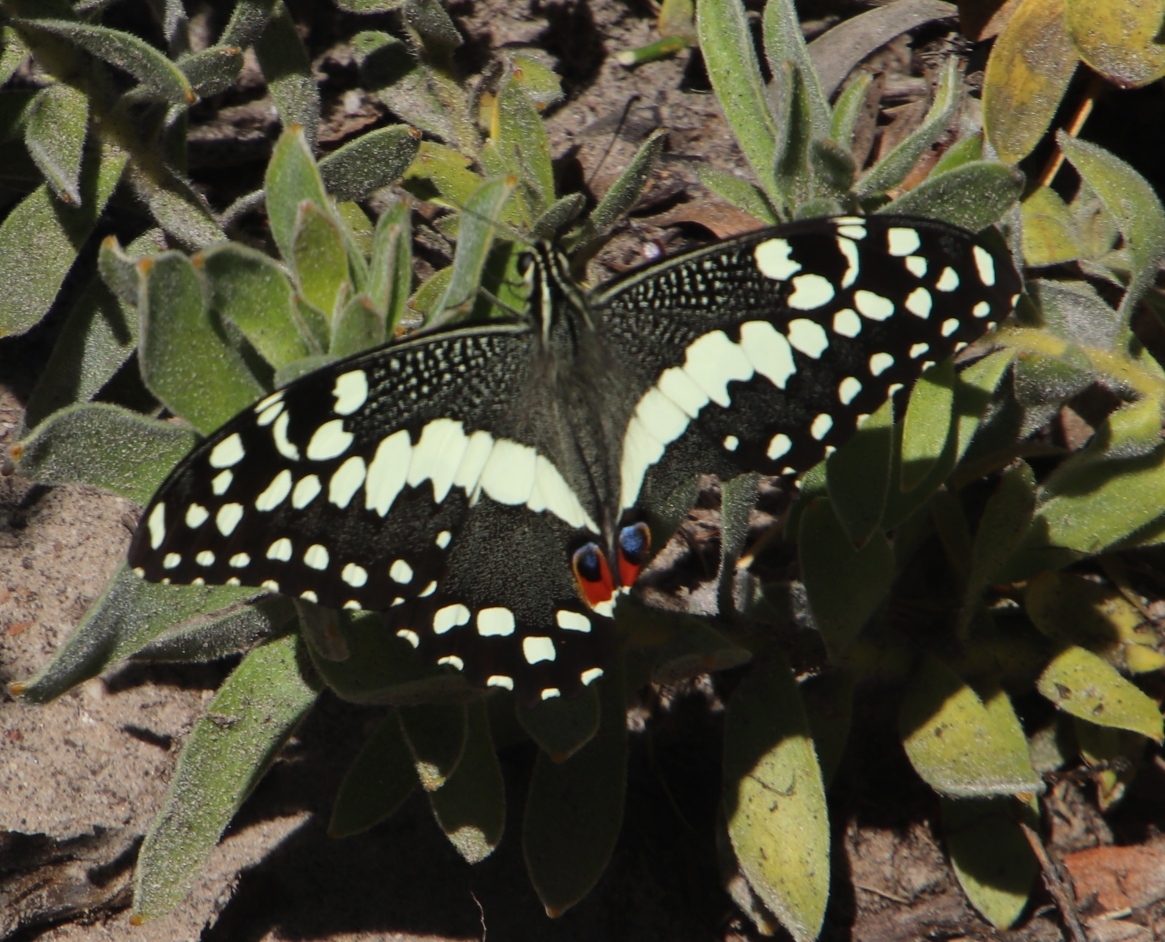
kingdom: Animalia
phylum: Arthropoda
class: Insecta
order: Lepidoptera
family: Papilionidae
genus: Papilio
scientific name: Papilio demodocus
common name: Christmas butterfly
